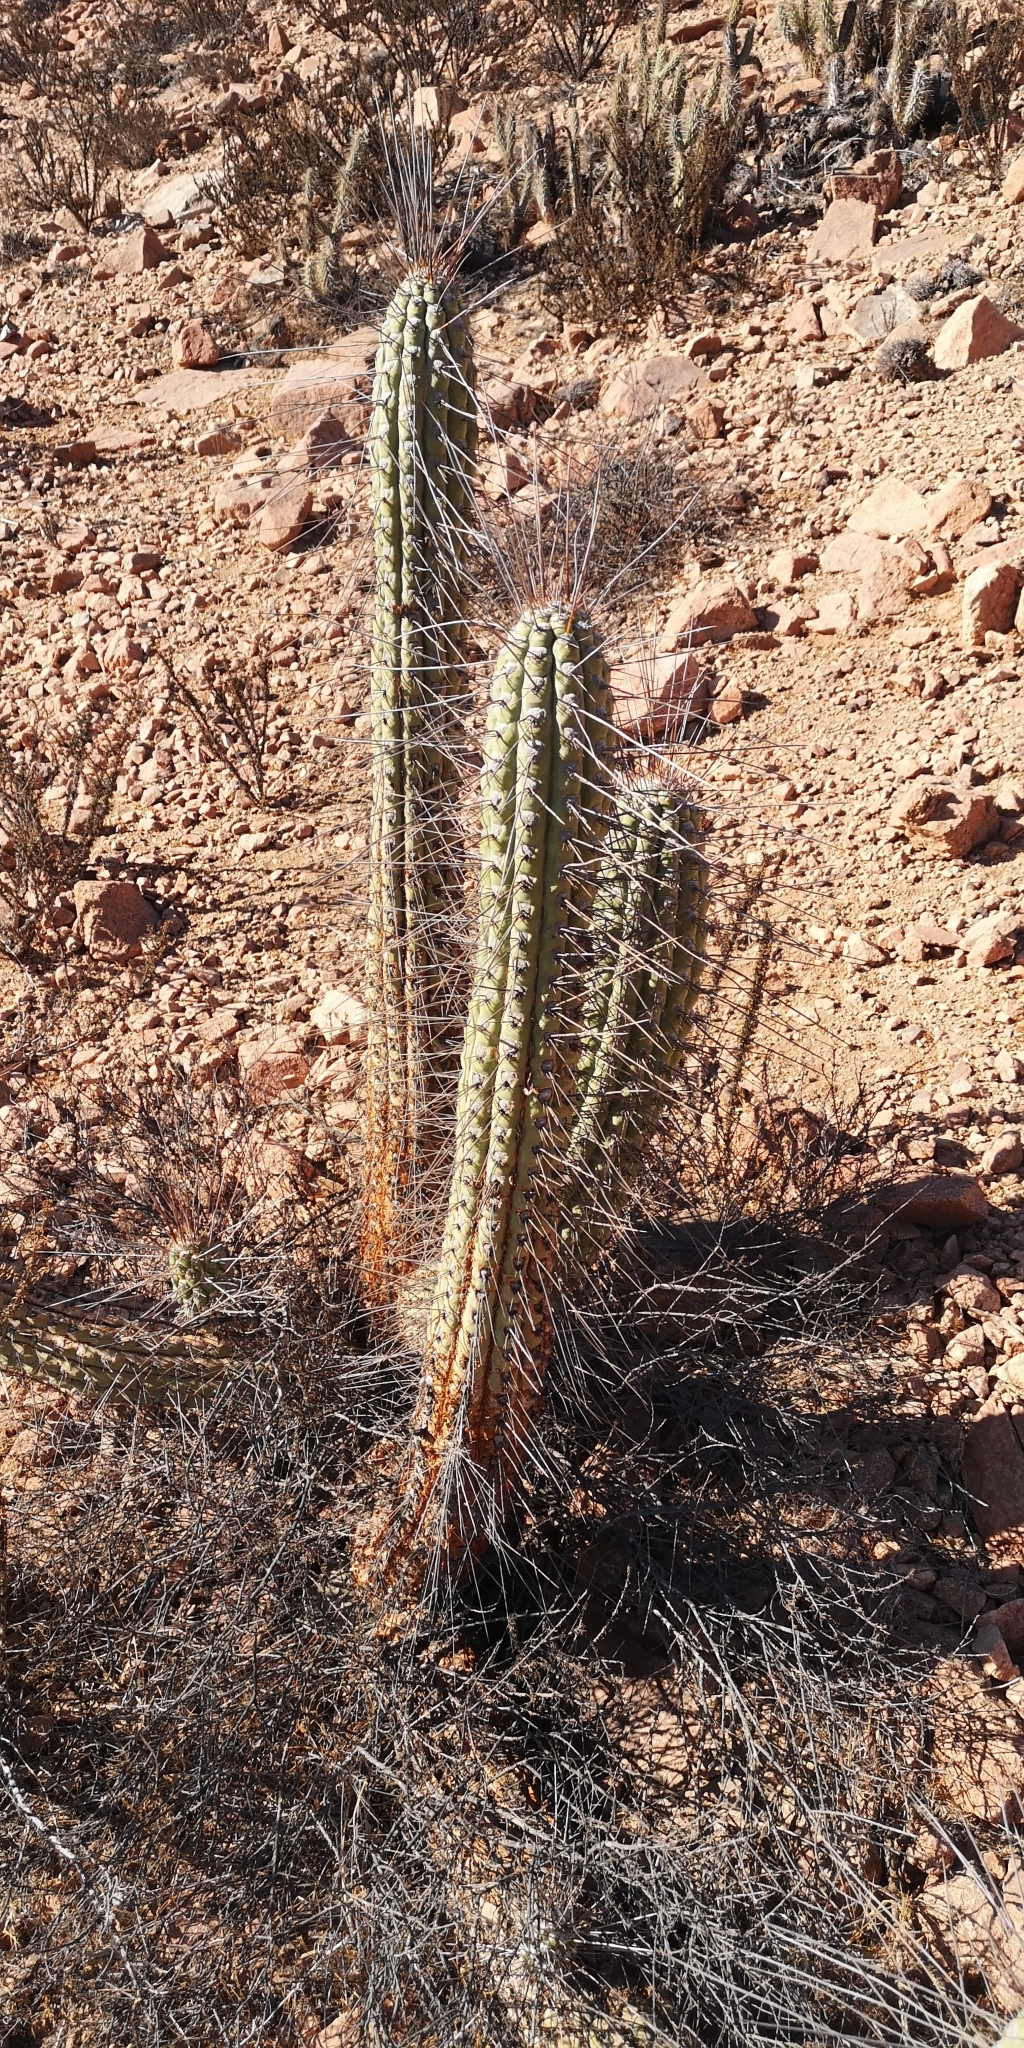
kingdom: Plantae
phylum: Tracheophyta
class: Magnoliopsida
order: Caryophyllales
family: Cactaceae
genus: Eulychnia
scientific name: Eulychnia vallenarensis
